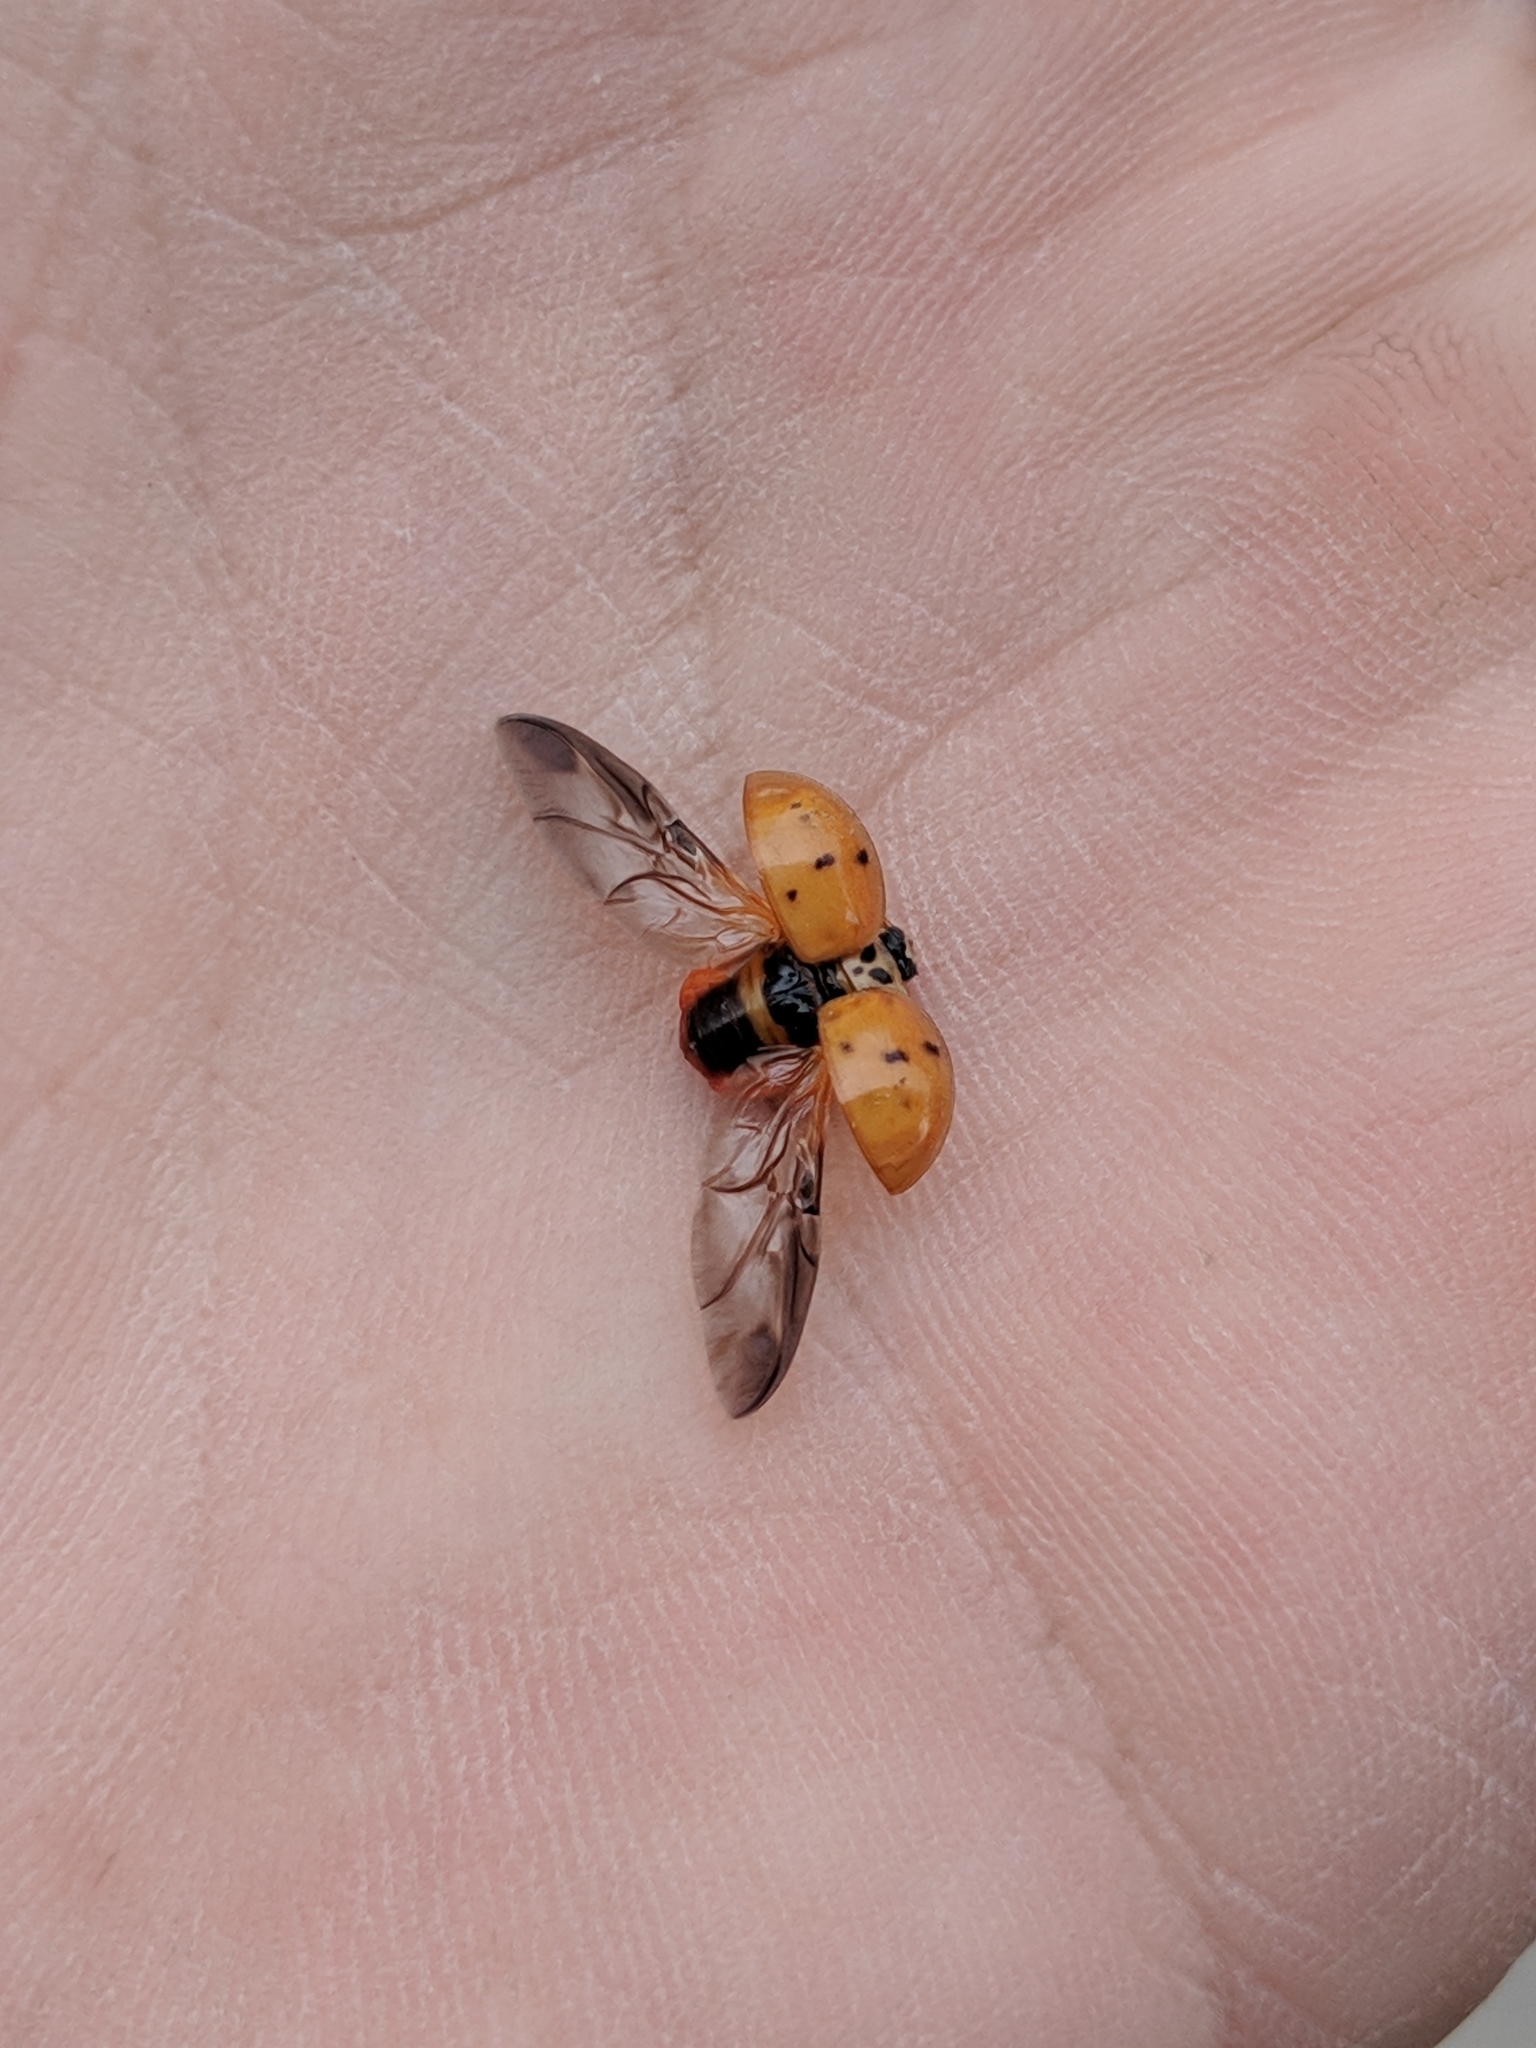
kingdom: Animalia
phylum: Arthropoda
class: Insecta
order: Coleoptera
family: Coccinellidae
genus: Harmonia
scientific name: Harmonia axyridis
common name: Harlequin ladybird
